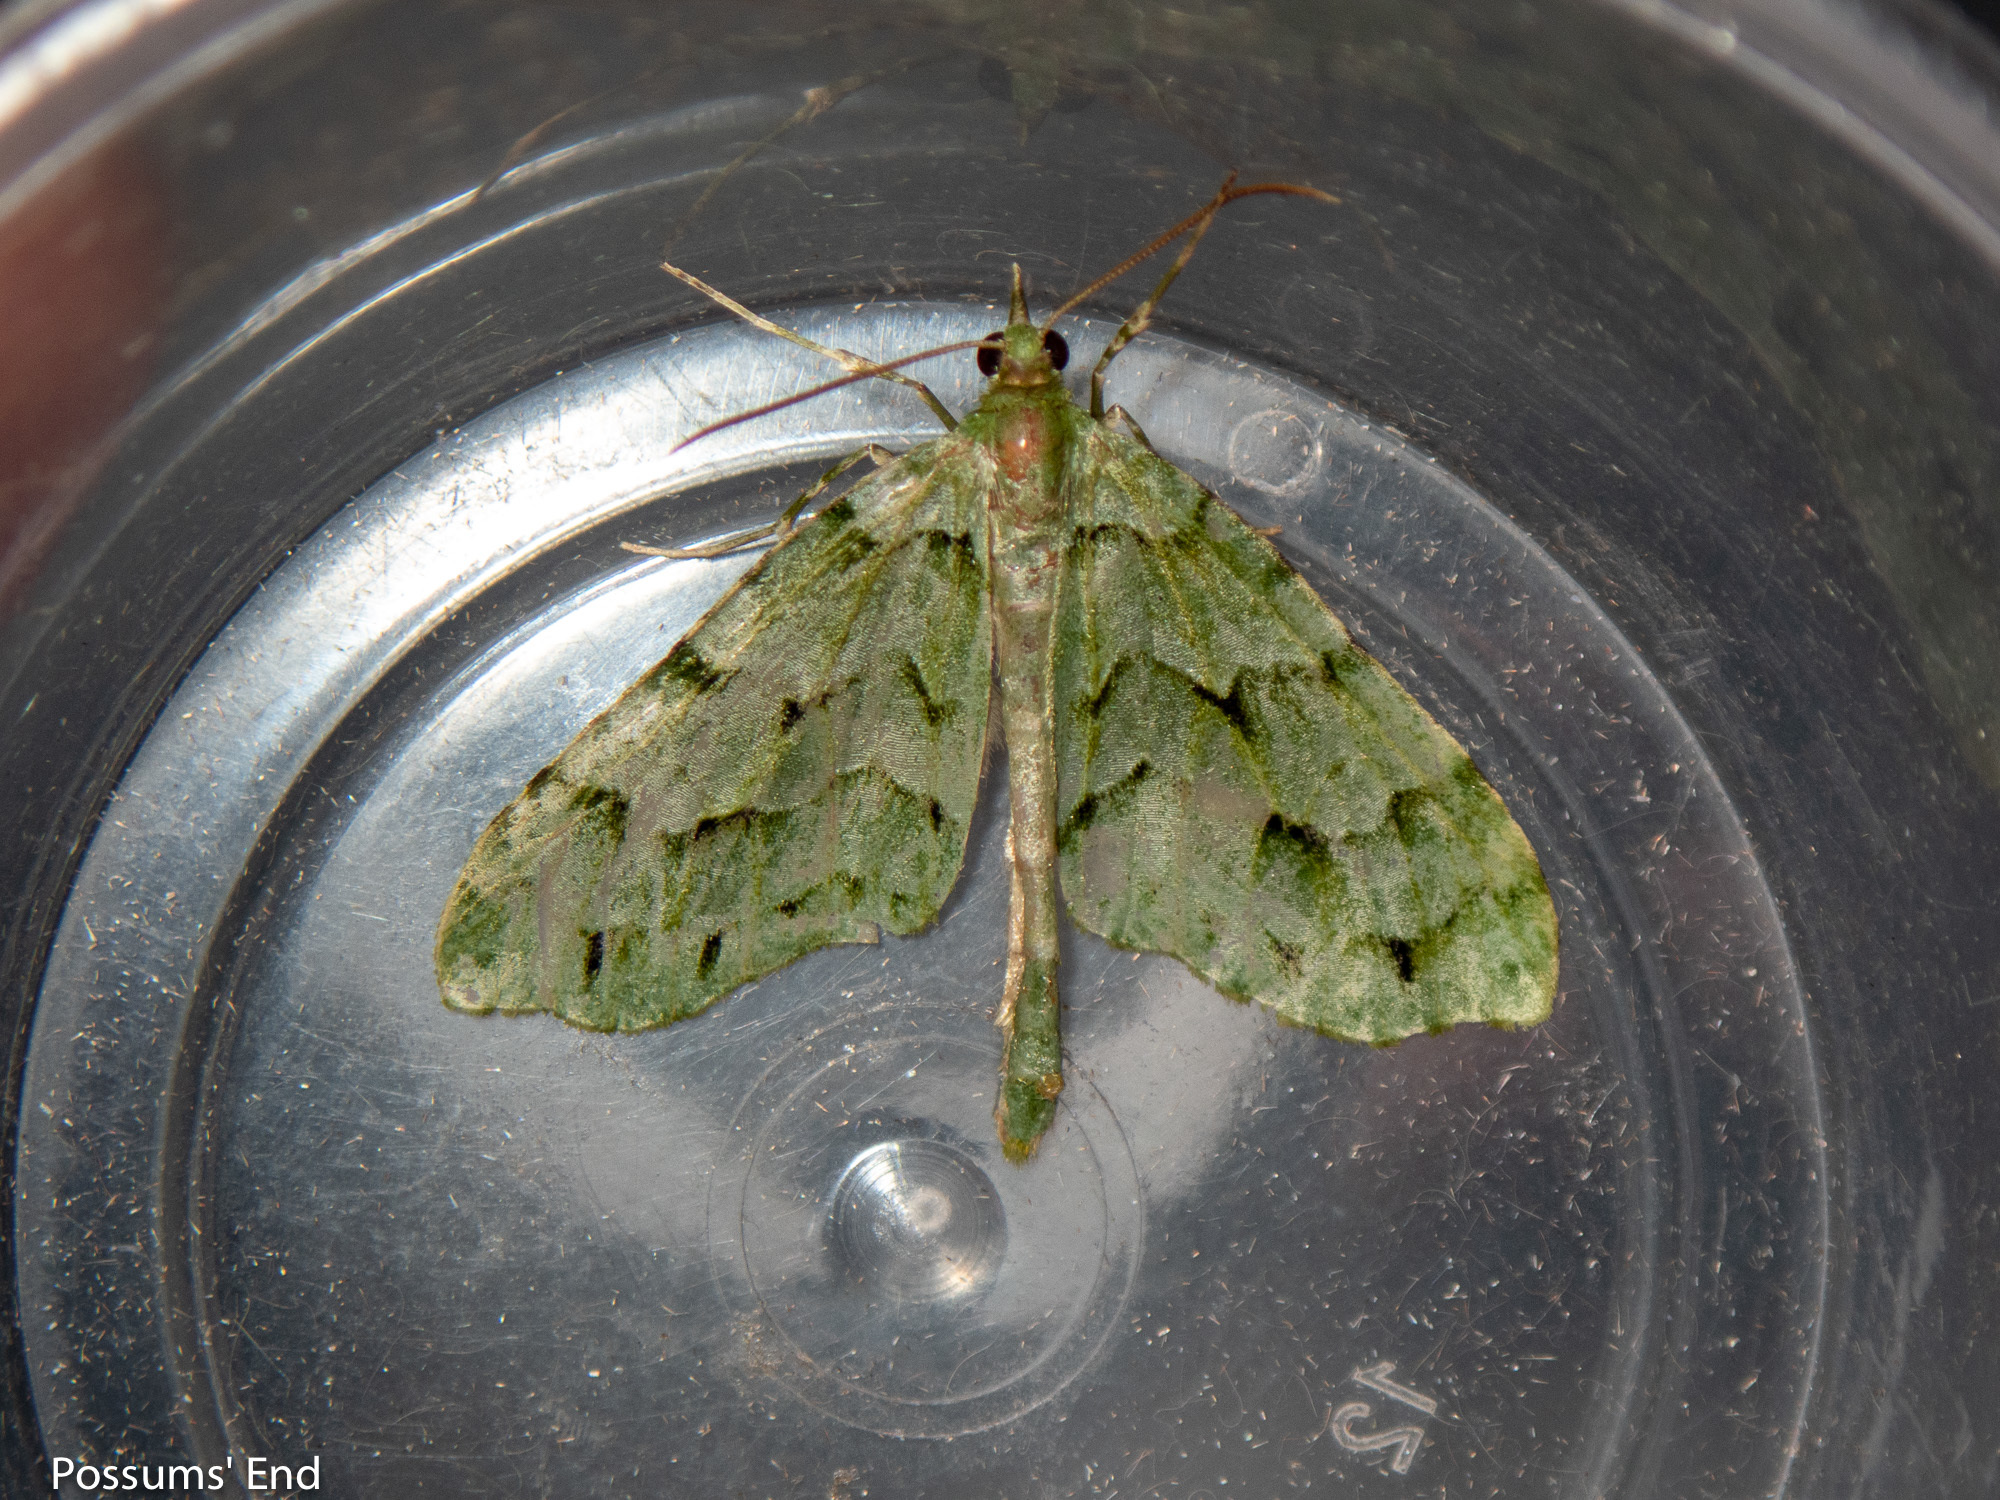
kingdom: Animalia
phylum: Arthropoda
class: Insecta
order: Lepidoptera
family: Geometridae
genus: Tatosoma
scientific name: Tatosoma lestevata
